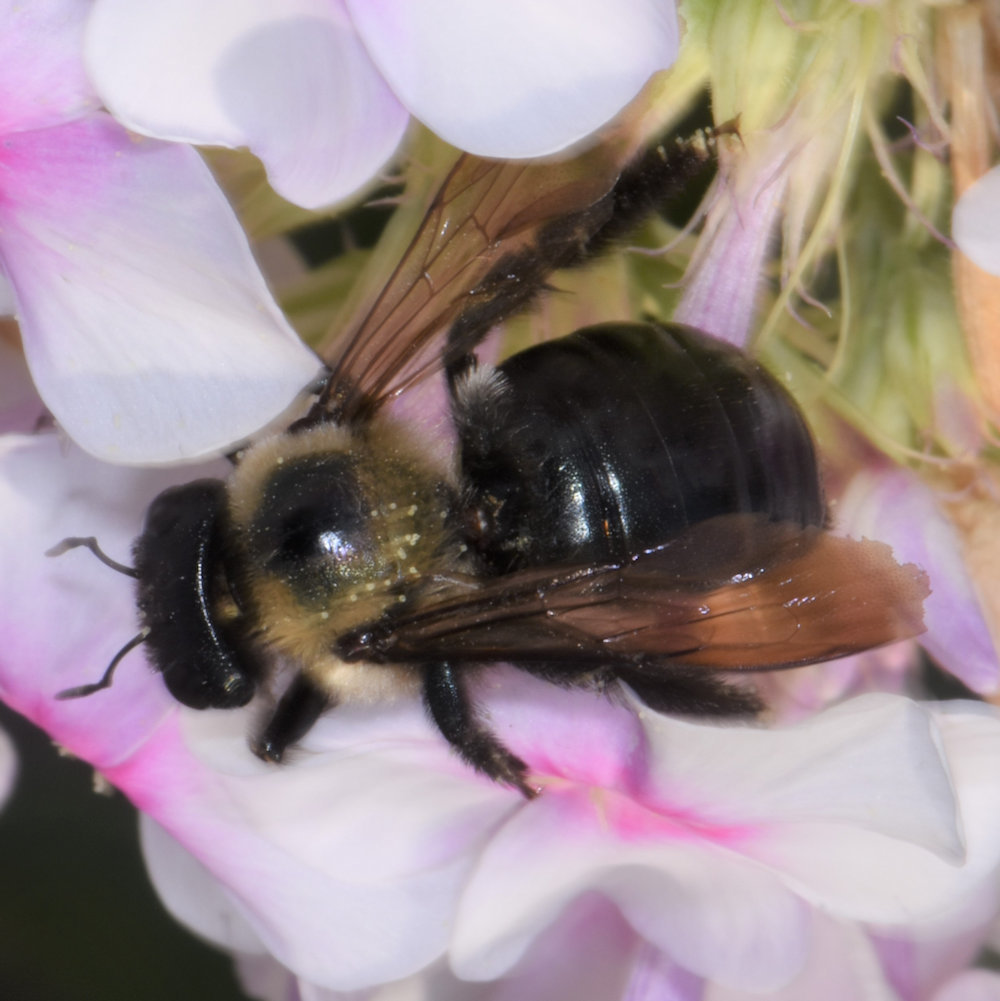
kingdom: Animalia
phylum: Arthropoda
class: Insecta
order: Hymenoptera
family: Apidae
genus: Xylocopa
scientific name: Xylocopa virginica
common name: Carpenter bee
